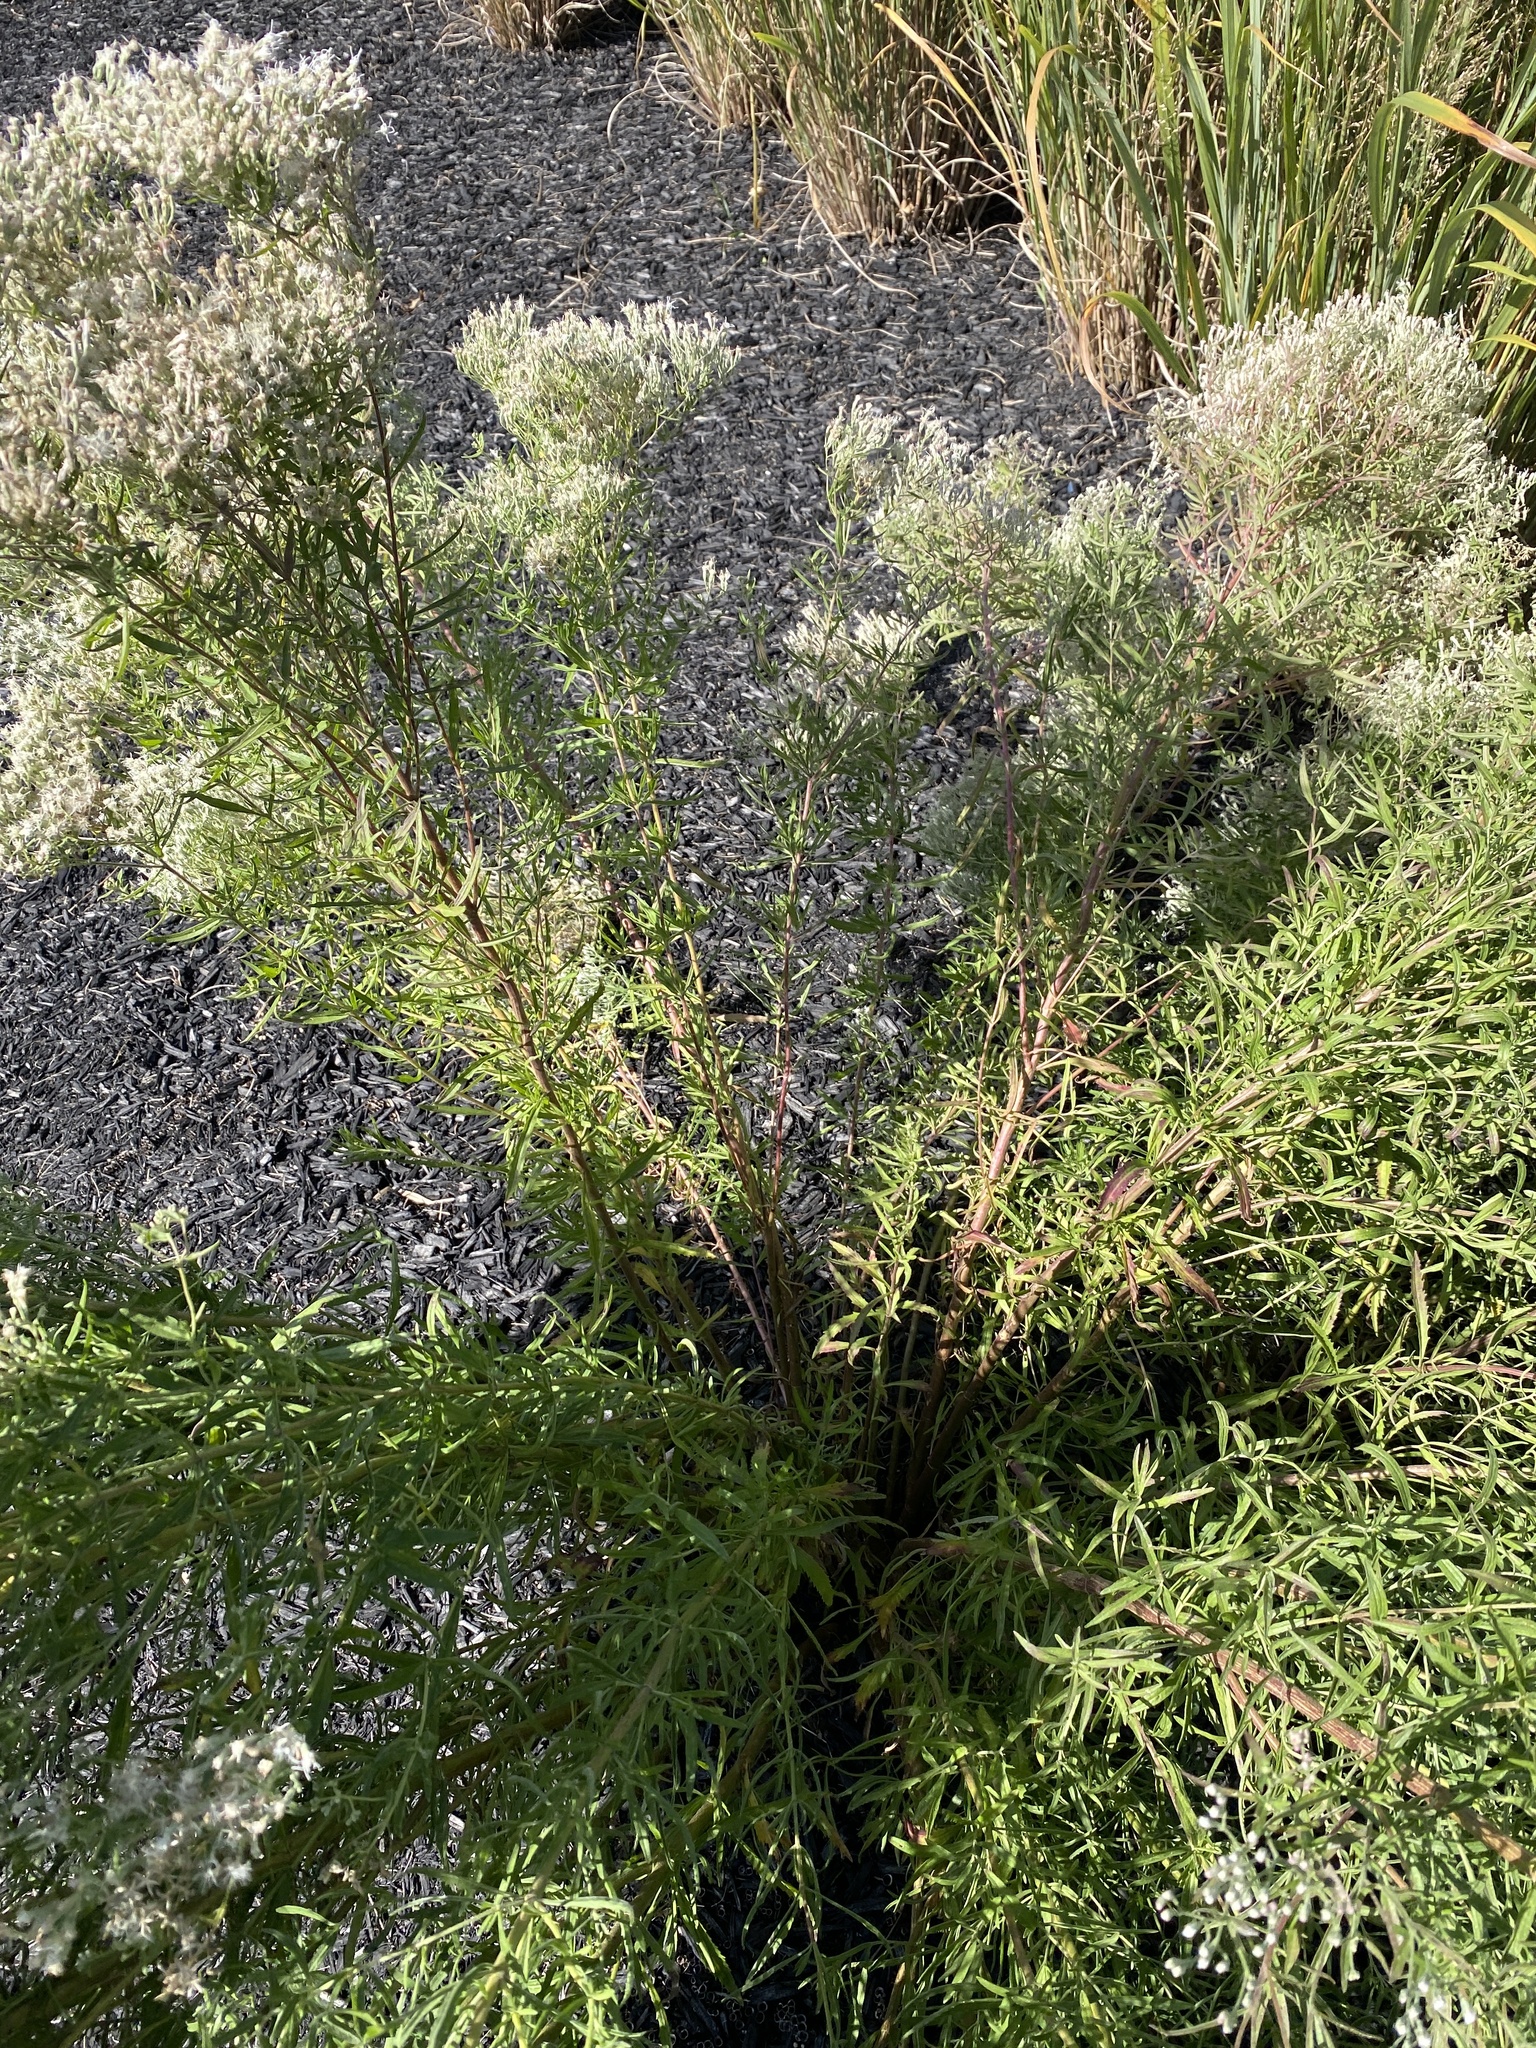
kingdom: Plantae
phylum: Tracheophyta
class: Magnoliopsida
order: Asterales
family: Asteraceae
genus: Eupatorium
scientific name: Eupatorium torreyanum
